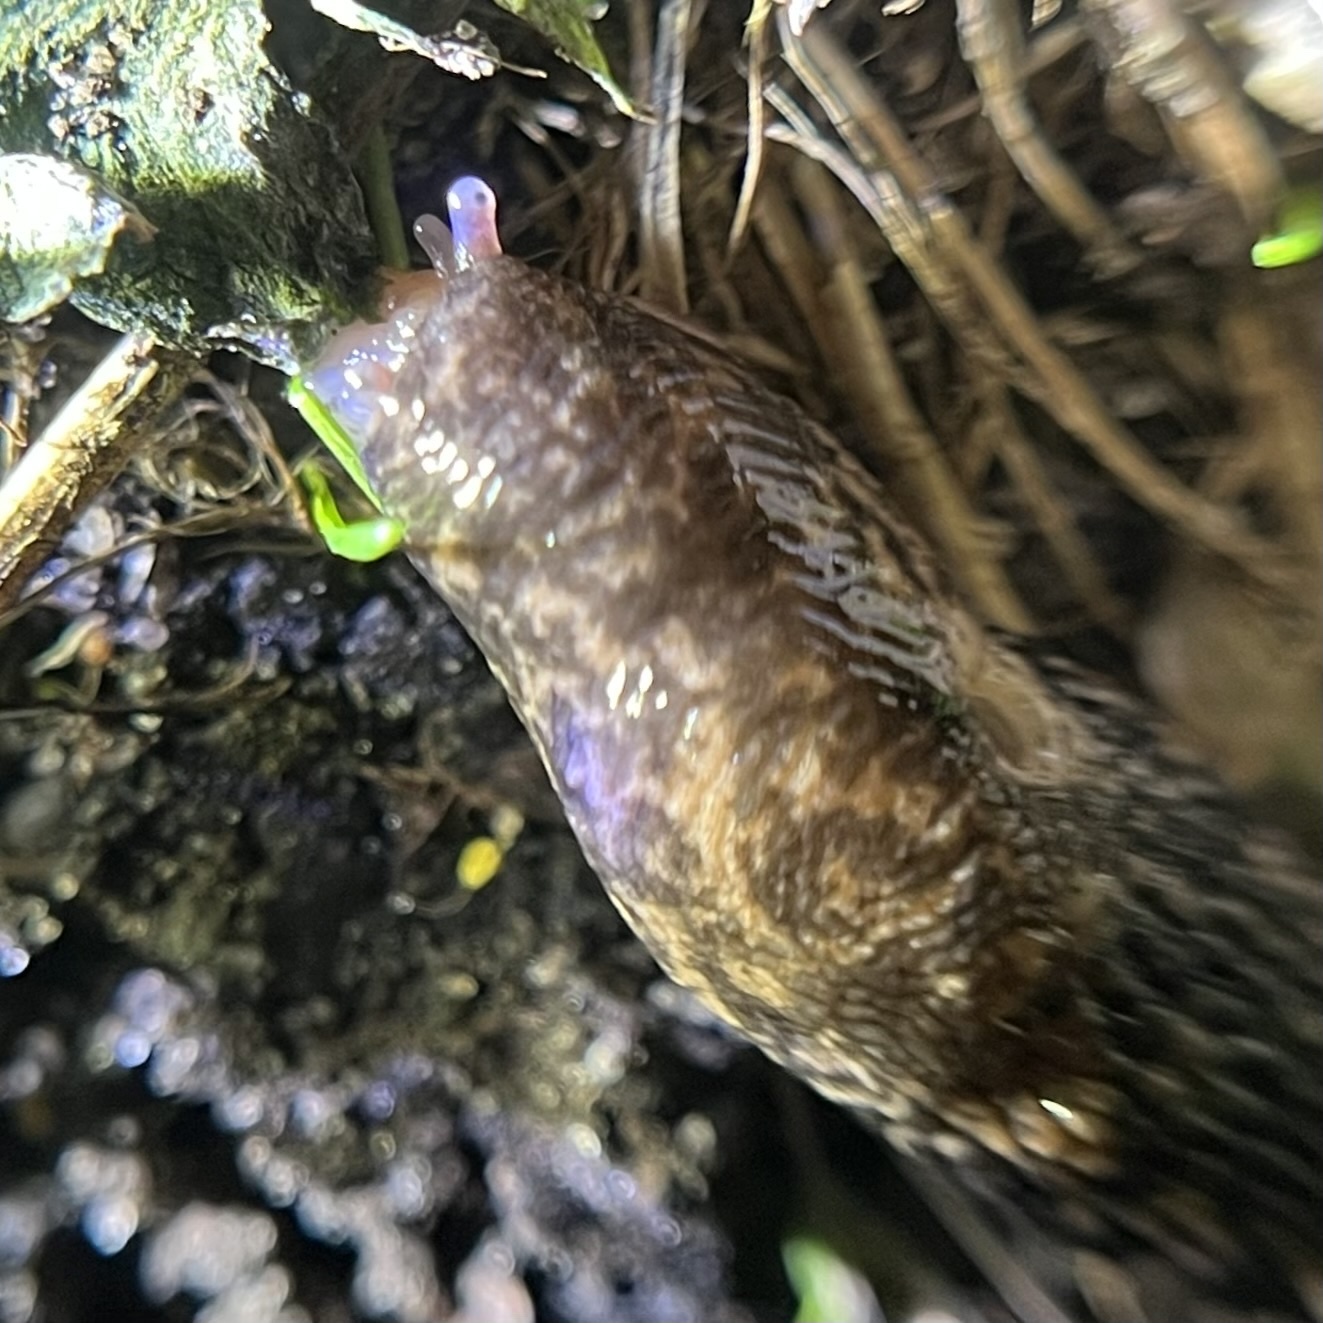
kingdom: Animalia
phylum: Mollusca
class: Gastropoda
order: Stylommatophora
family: Agriolimacidae
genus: Deroceras
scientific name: Deroceras reticulatum
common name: Gray field slug
